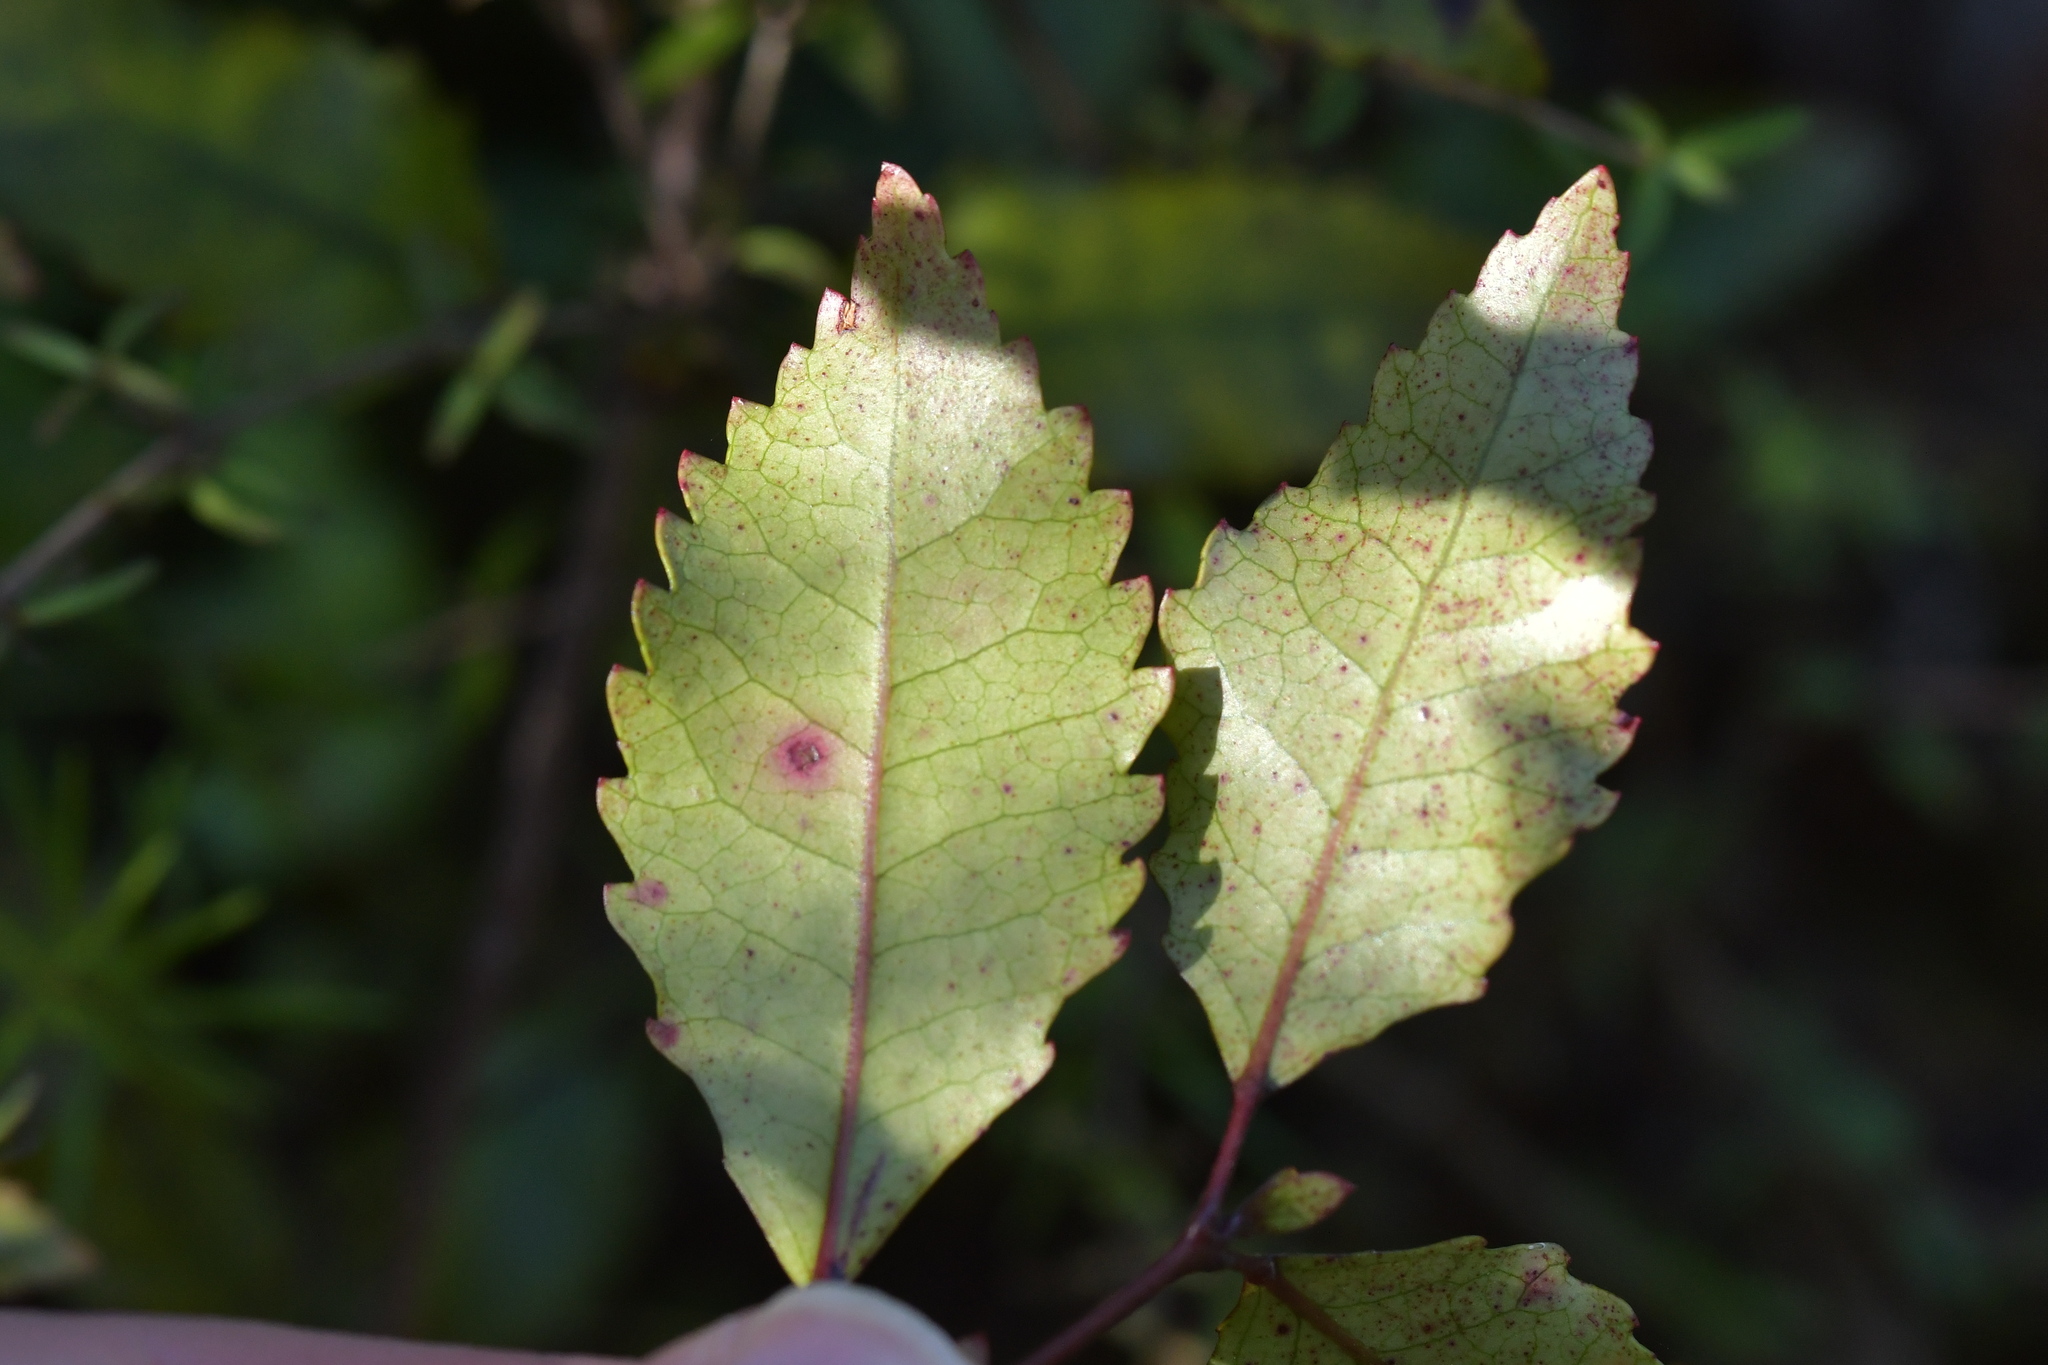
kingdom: Plantae
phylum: Tracheophyta
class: Magnoliopsida
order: Oxalidales
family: Cunoniaceae
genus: Pterophylla
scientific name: Pterophylla racemosa
